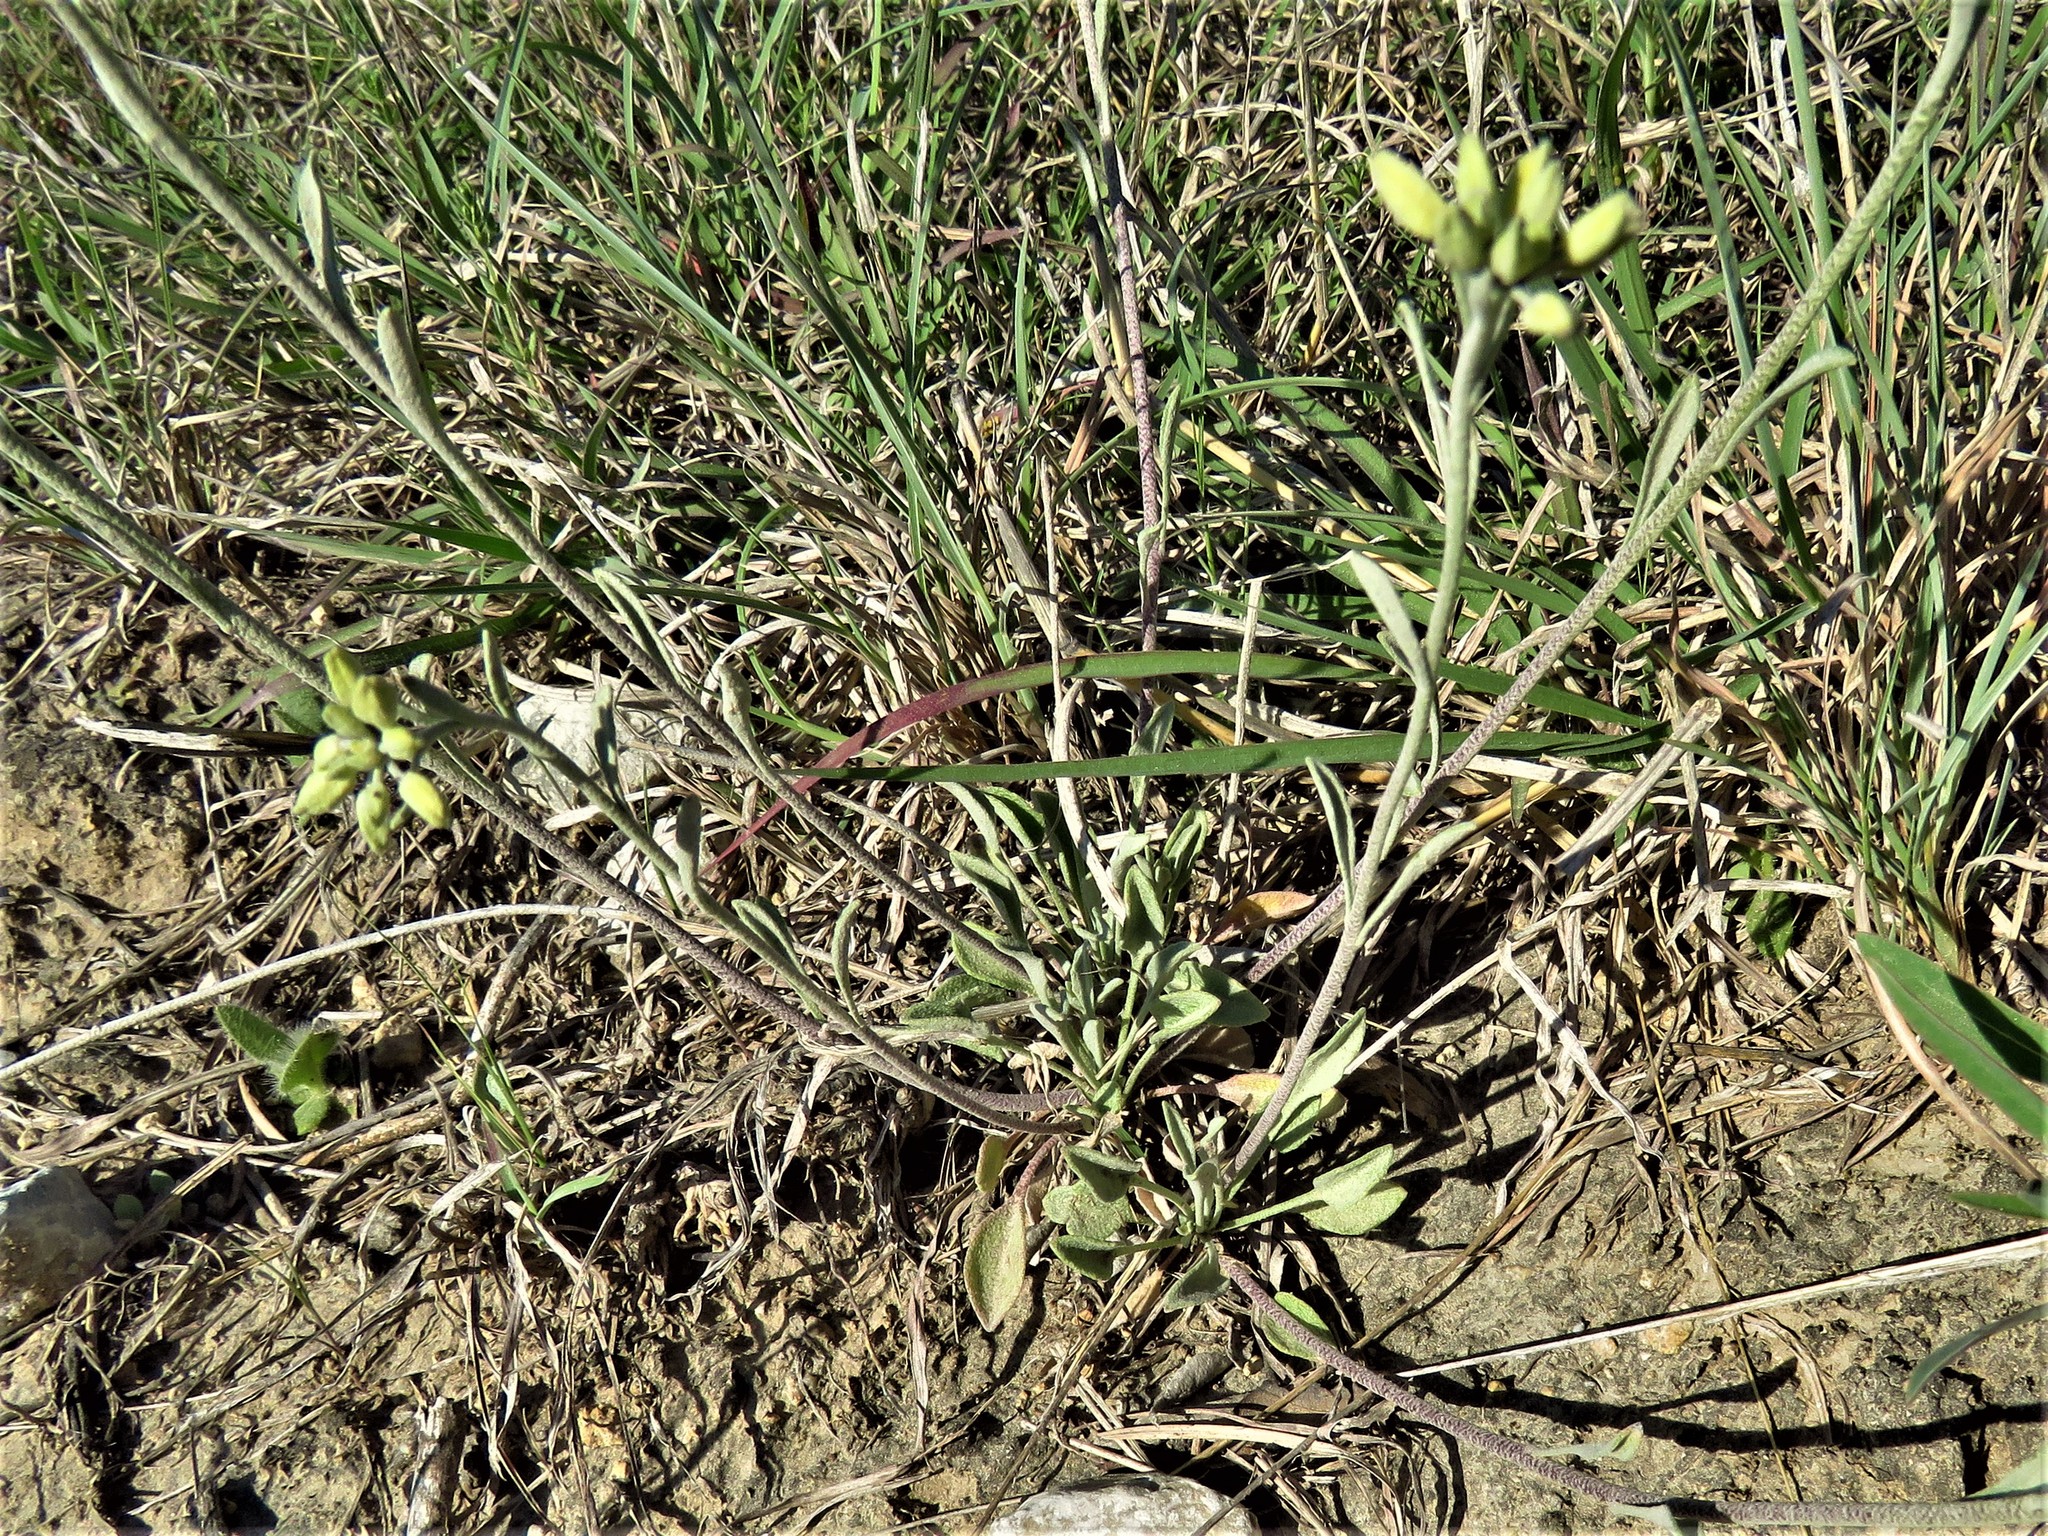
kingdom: Plantae
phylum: Tracheophyta
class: Magnoliopsida
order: Brassicales
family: Brassicaceae
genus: Physaria
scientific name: Physaria gracilis
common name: Spreading bladderpod
